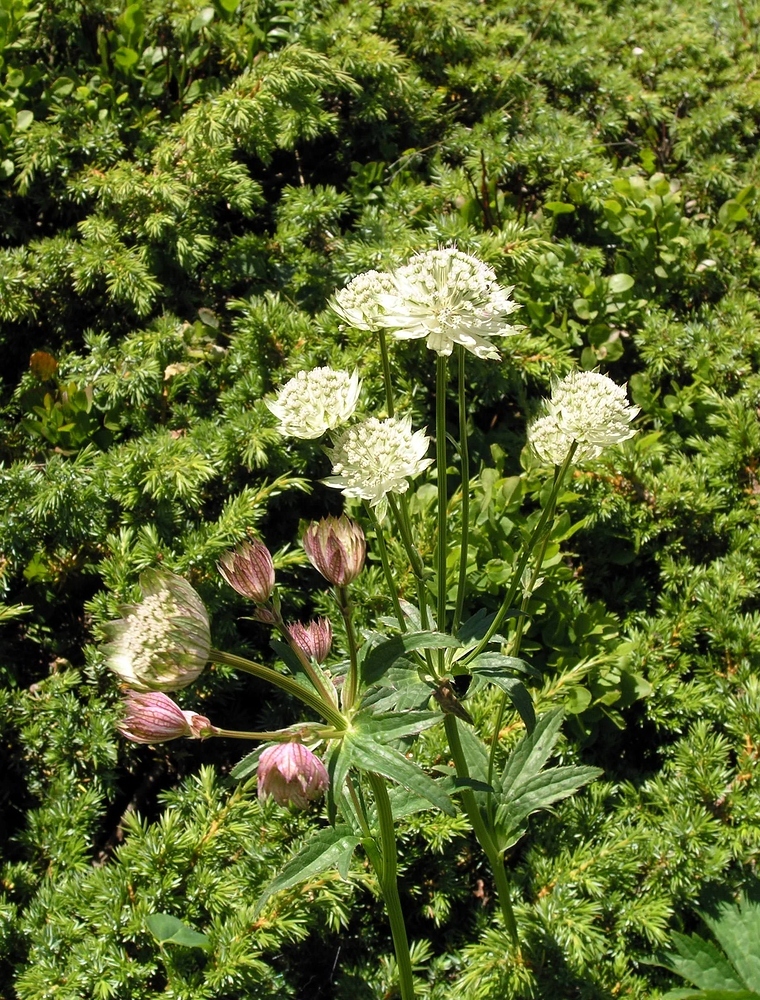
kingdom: Plantae
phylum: Tracheophyta
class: Magnoliopsida
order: Apiales
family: Apiaceae
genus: Astrantia
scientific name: Astrantia major
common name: Greater masterwort
